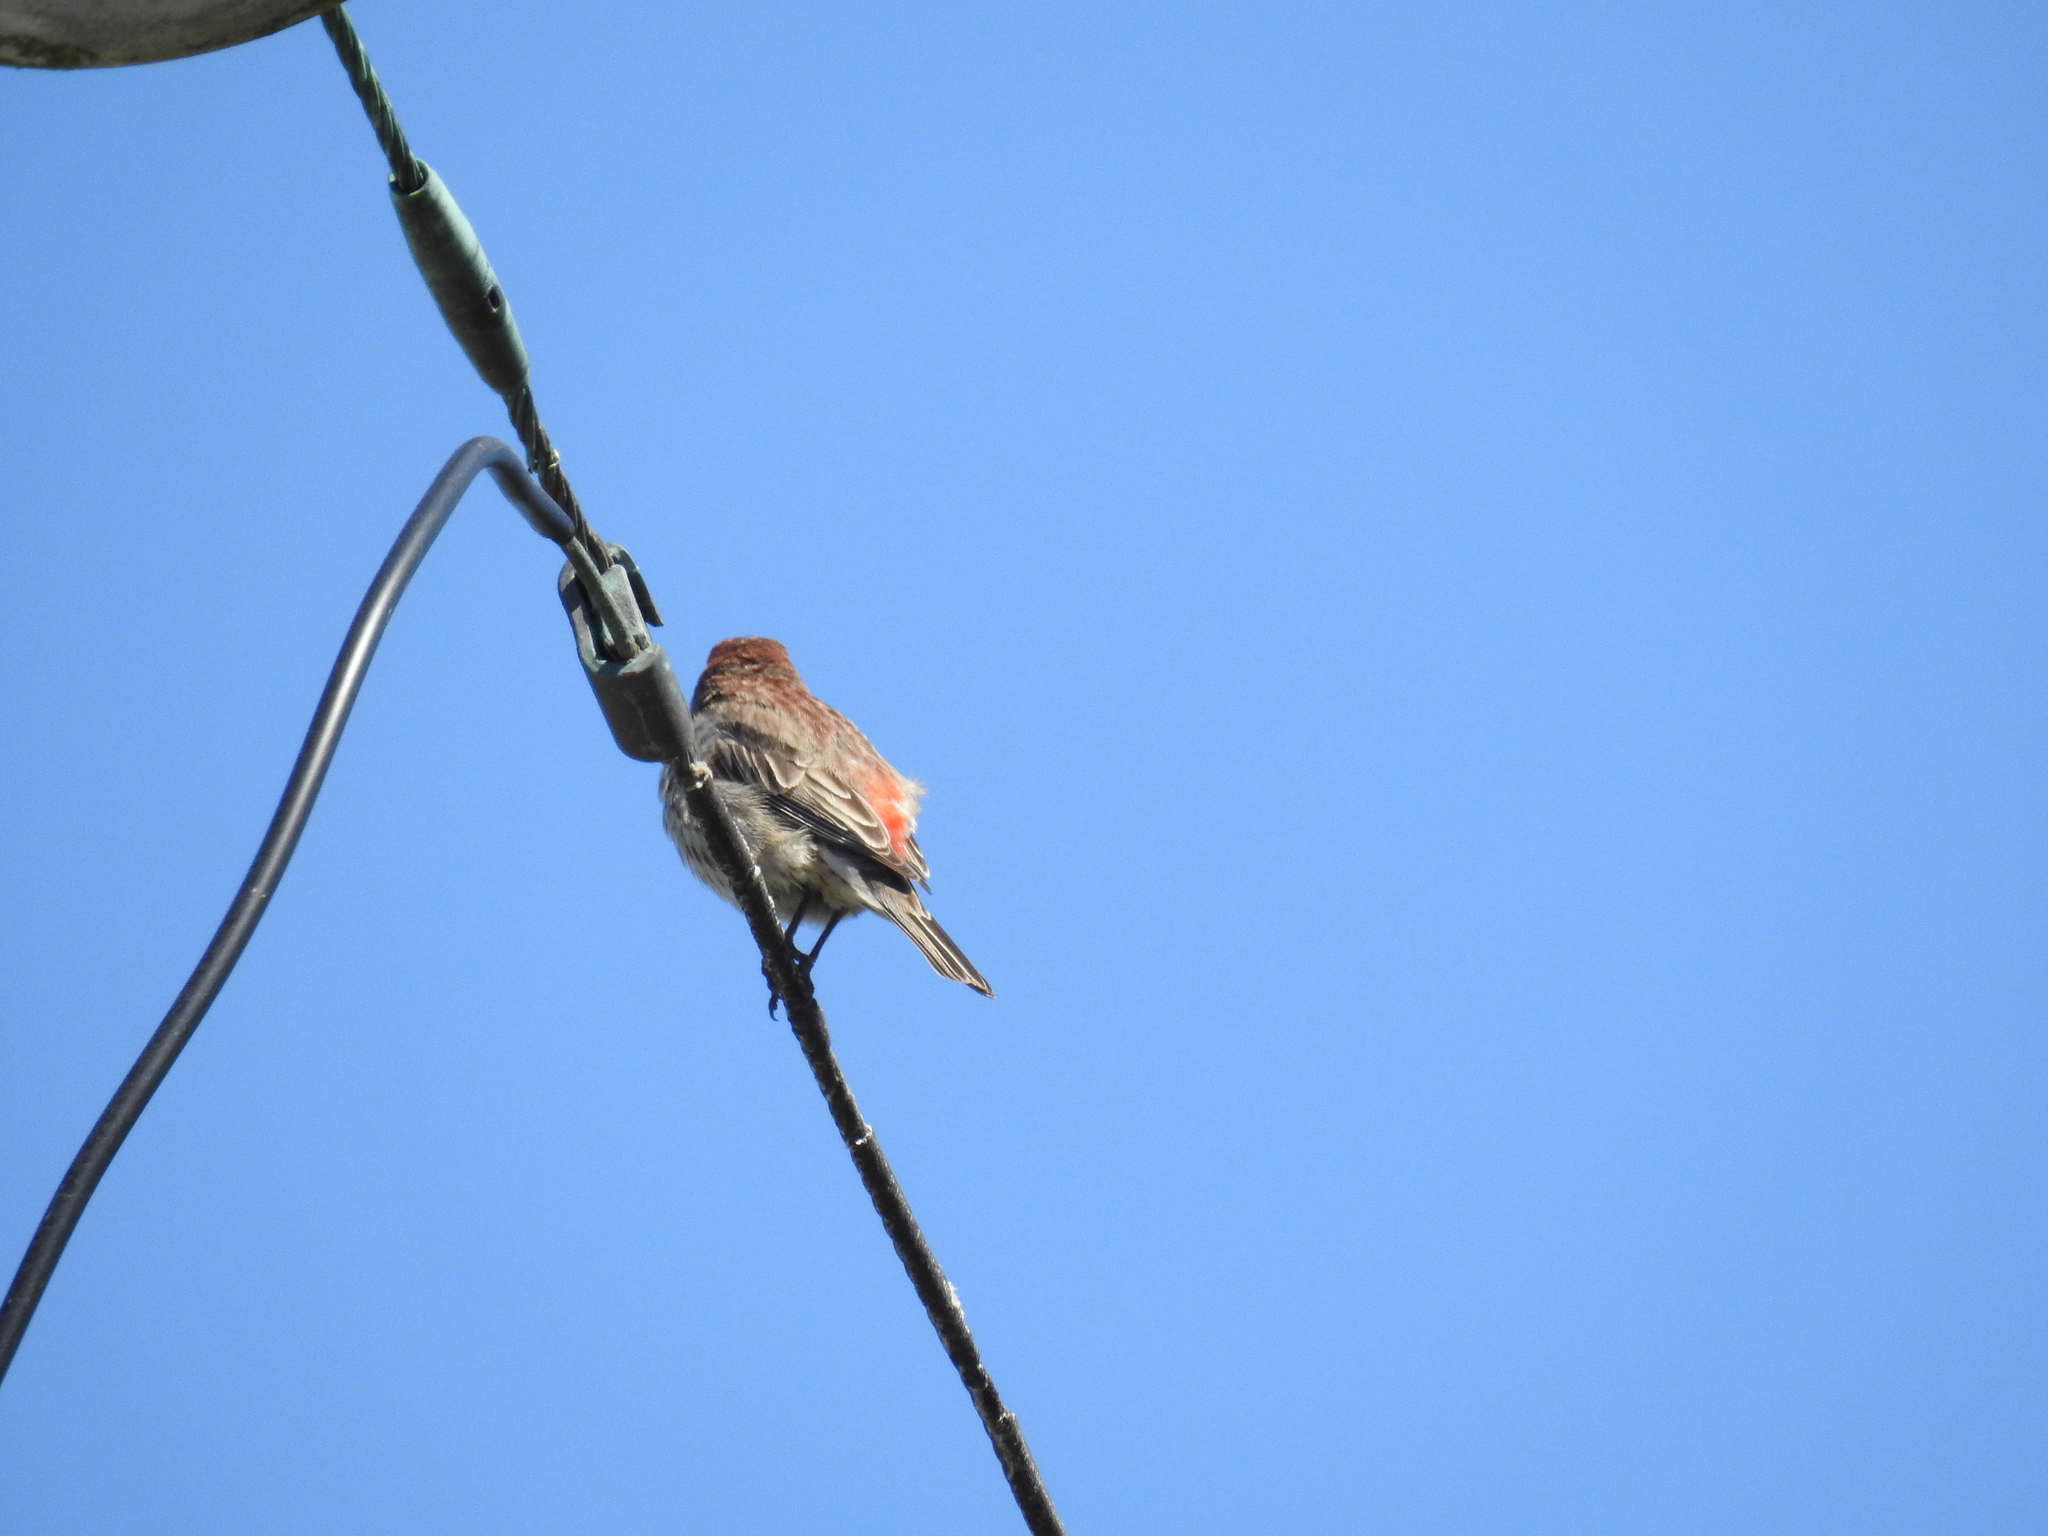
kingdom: Animalia
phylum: Chordata
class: Aves
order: Passeriformes
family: Fringillidae
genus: Haemorhous
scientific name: Haemorhous mexicanus
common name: House finch
